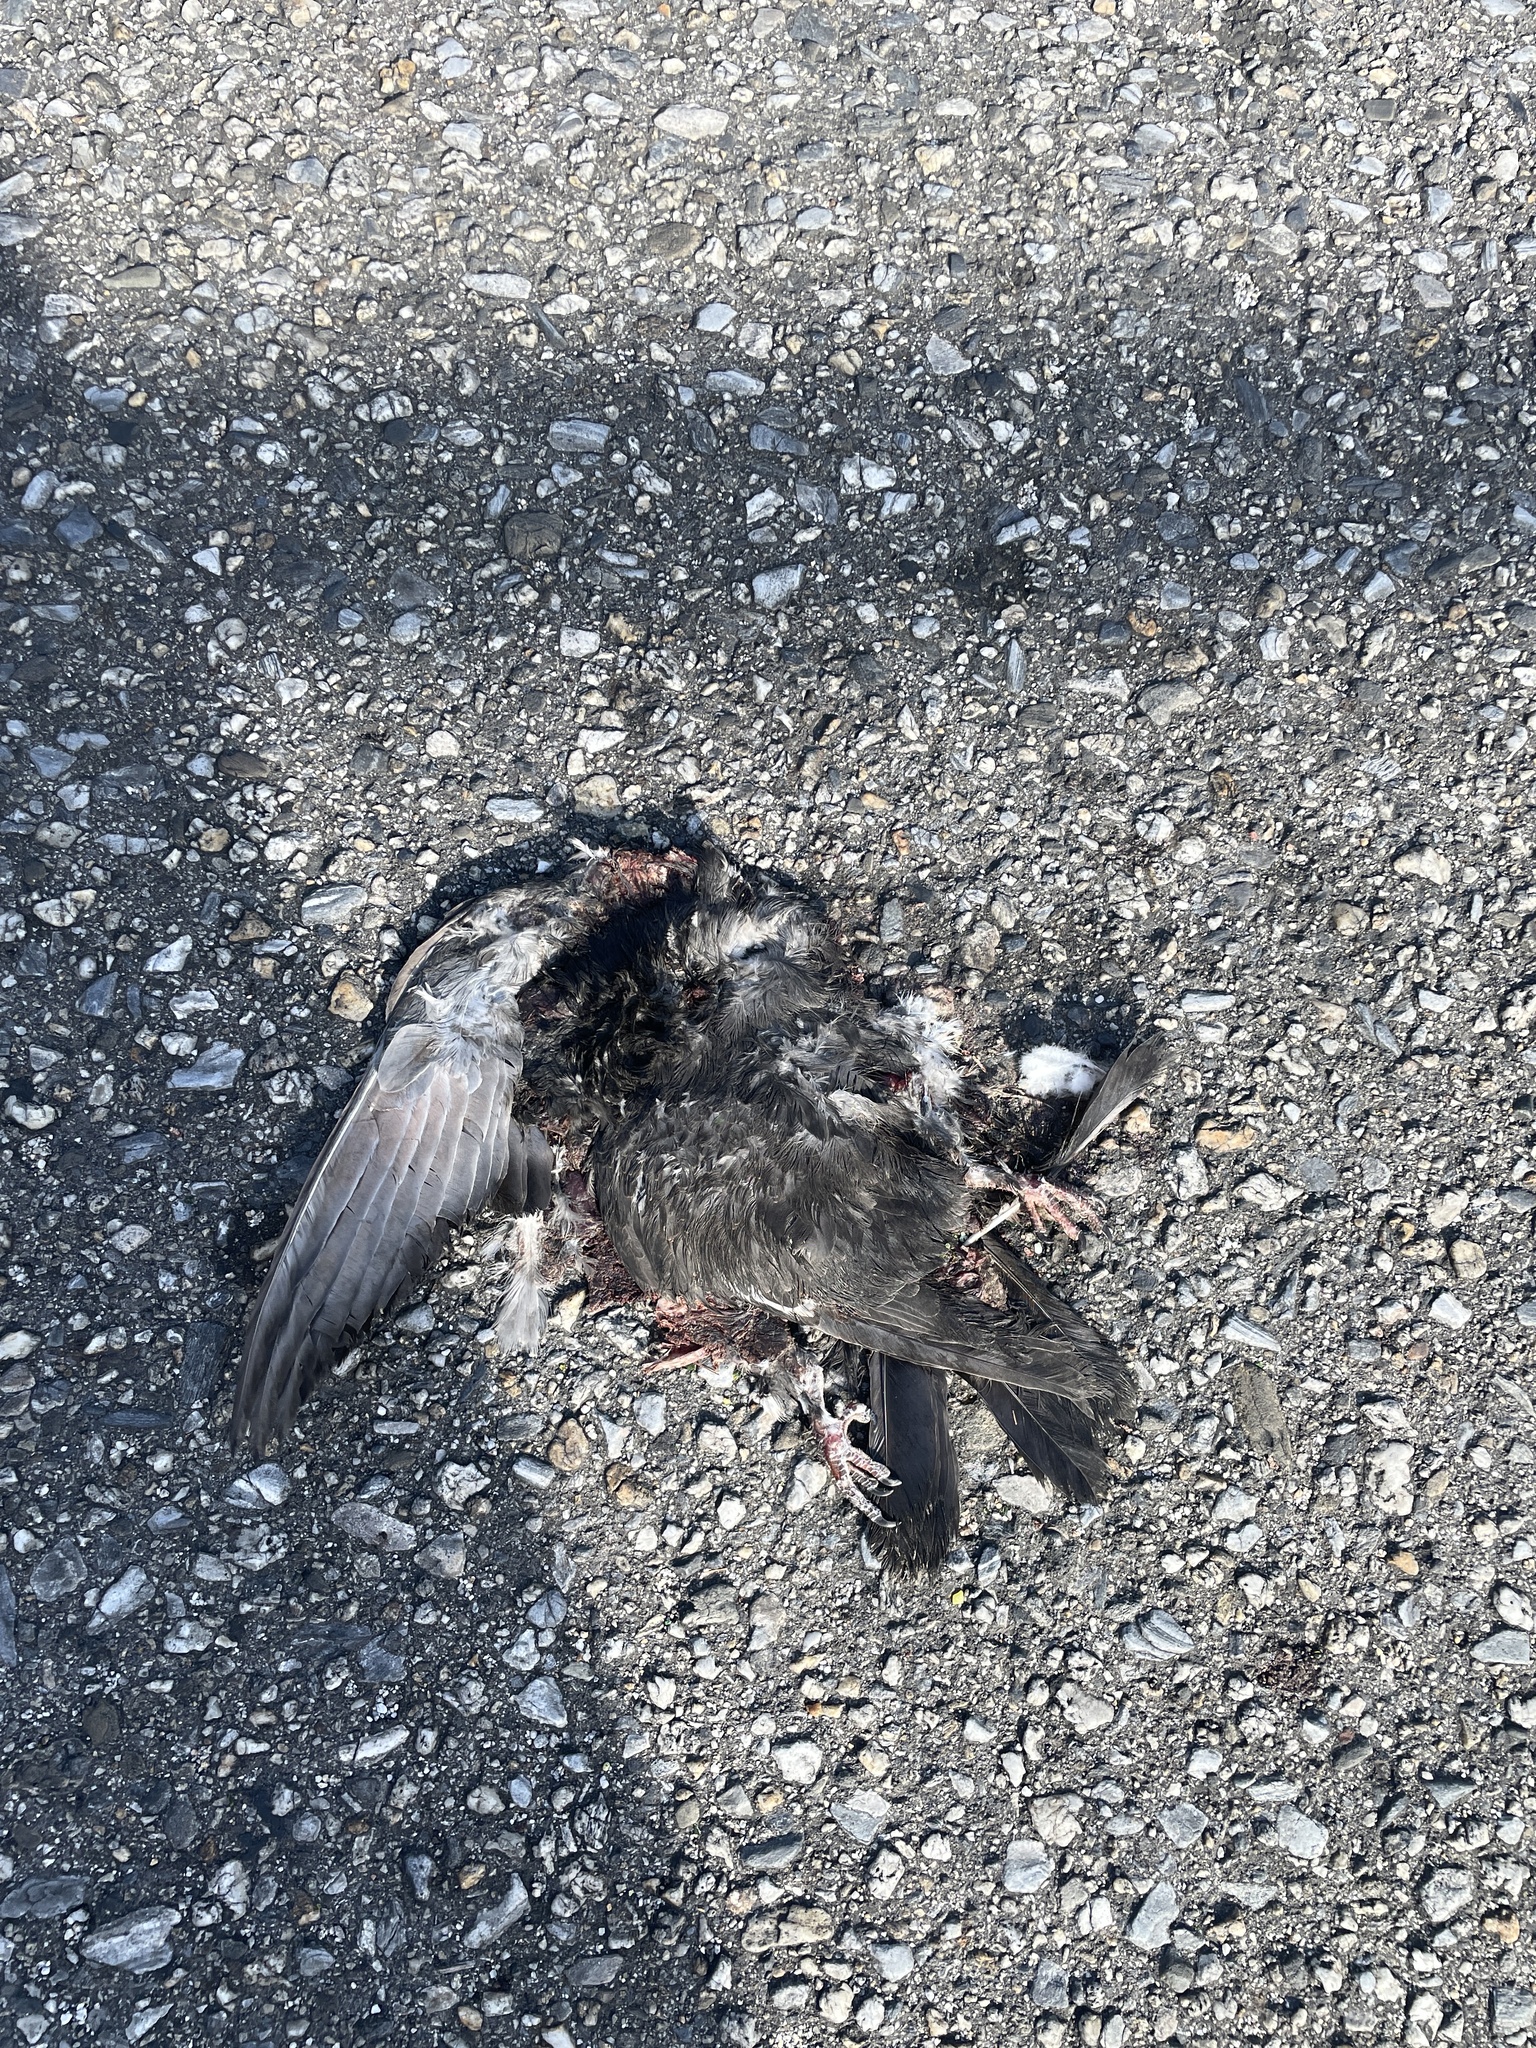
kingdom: Animalia
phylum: Chordata
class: Aves
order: Columbiformes
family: Columbidae
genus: Columba
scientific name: Columba livia
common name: Rock pigeon
